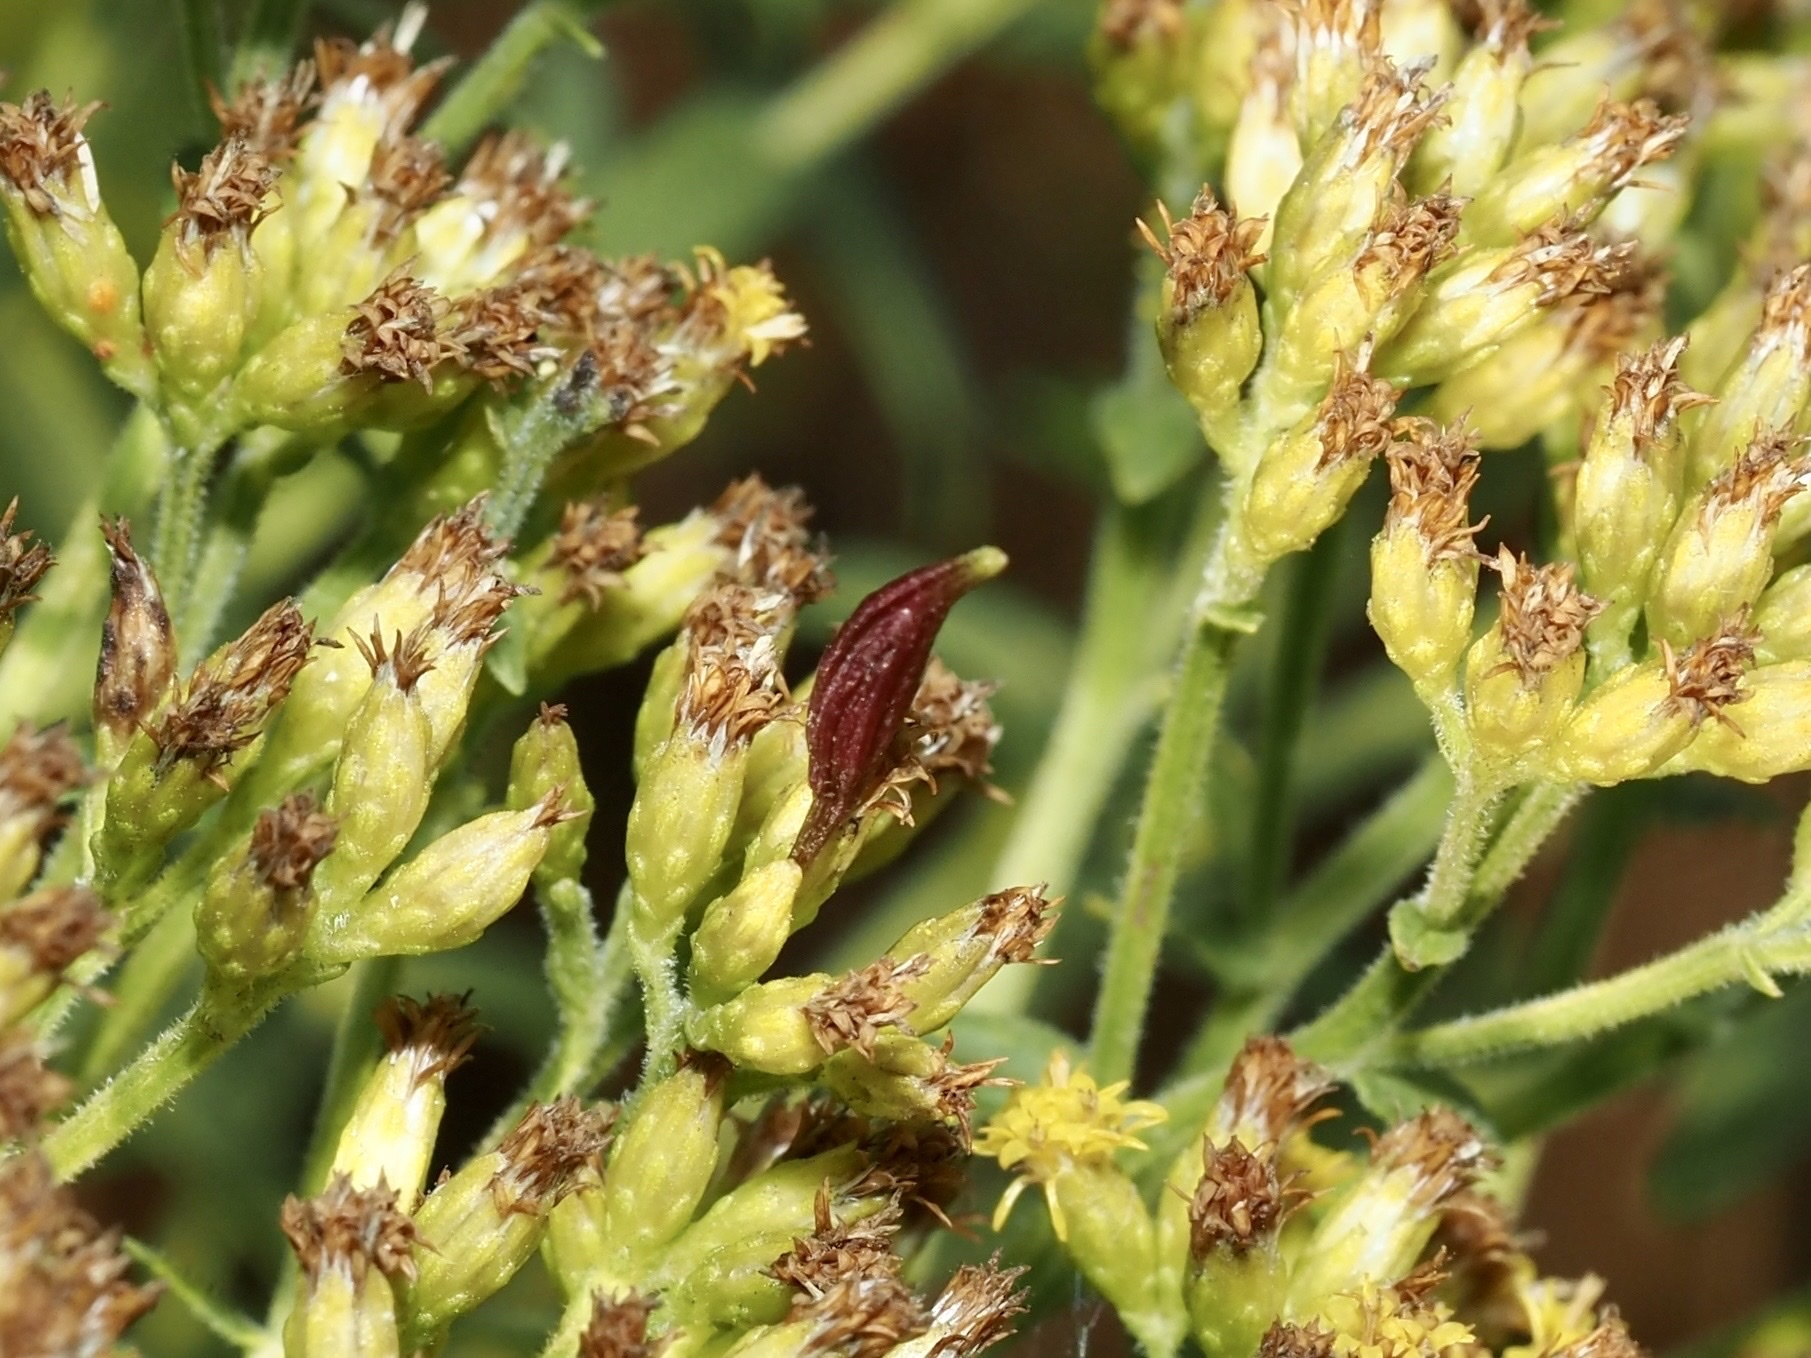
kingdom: Animalia
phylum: Arthropoda
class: Insecta
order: Diptera
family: Cecidomyiidae
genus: Rhopalomyia
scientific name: Rhopalomyia pedicellata
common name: Goldentop pedicellate gall midge
